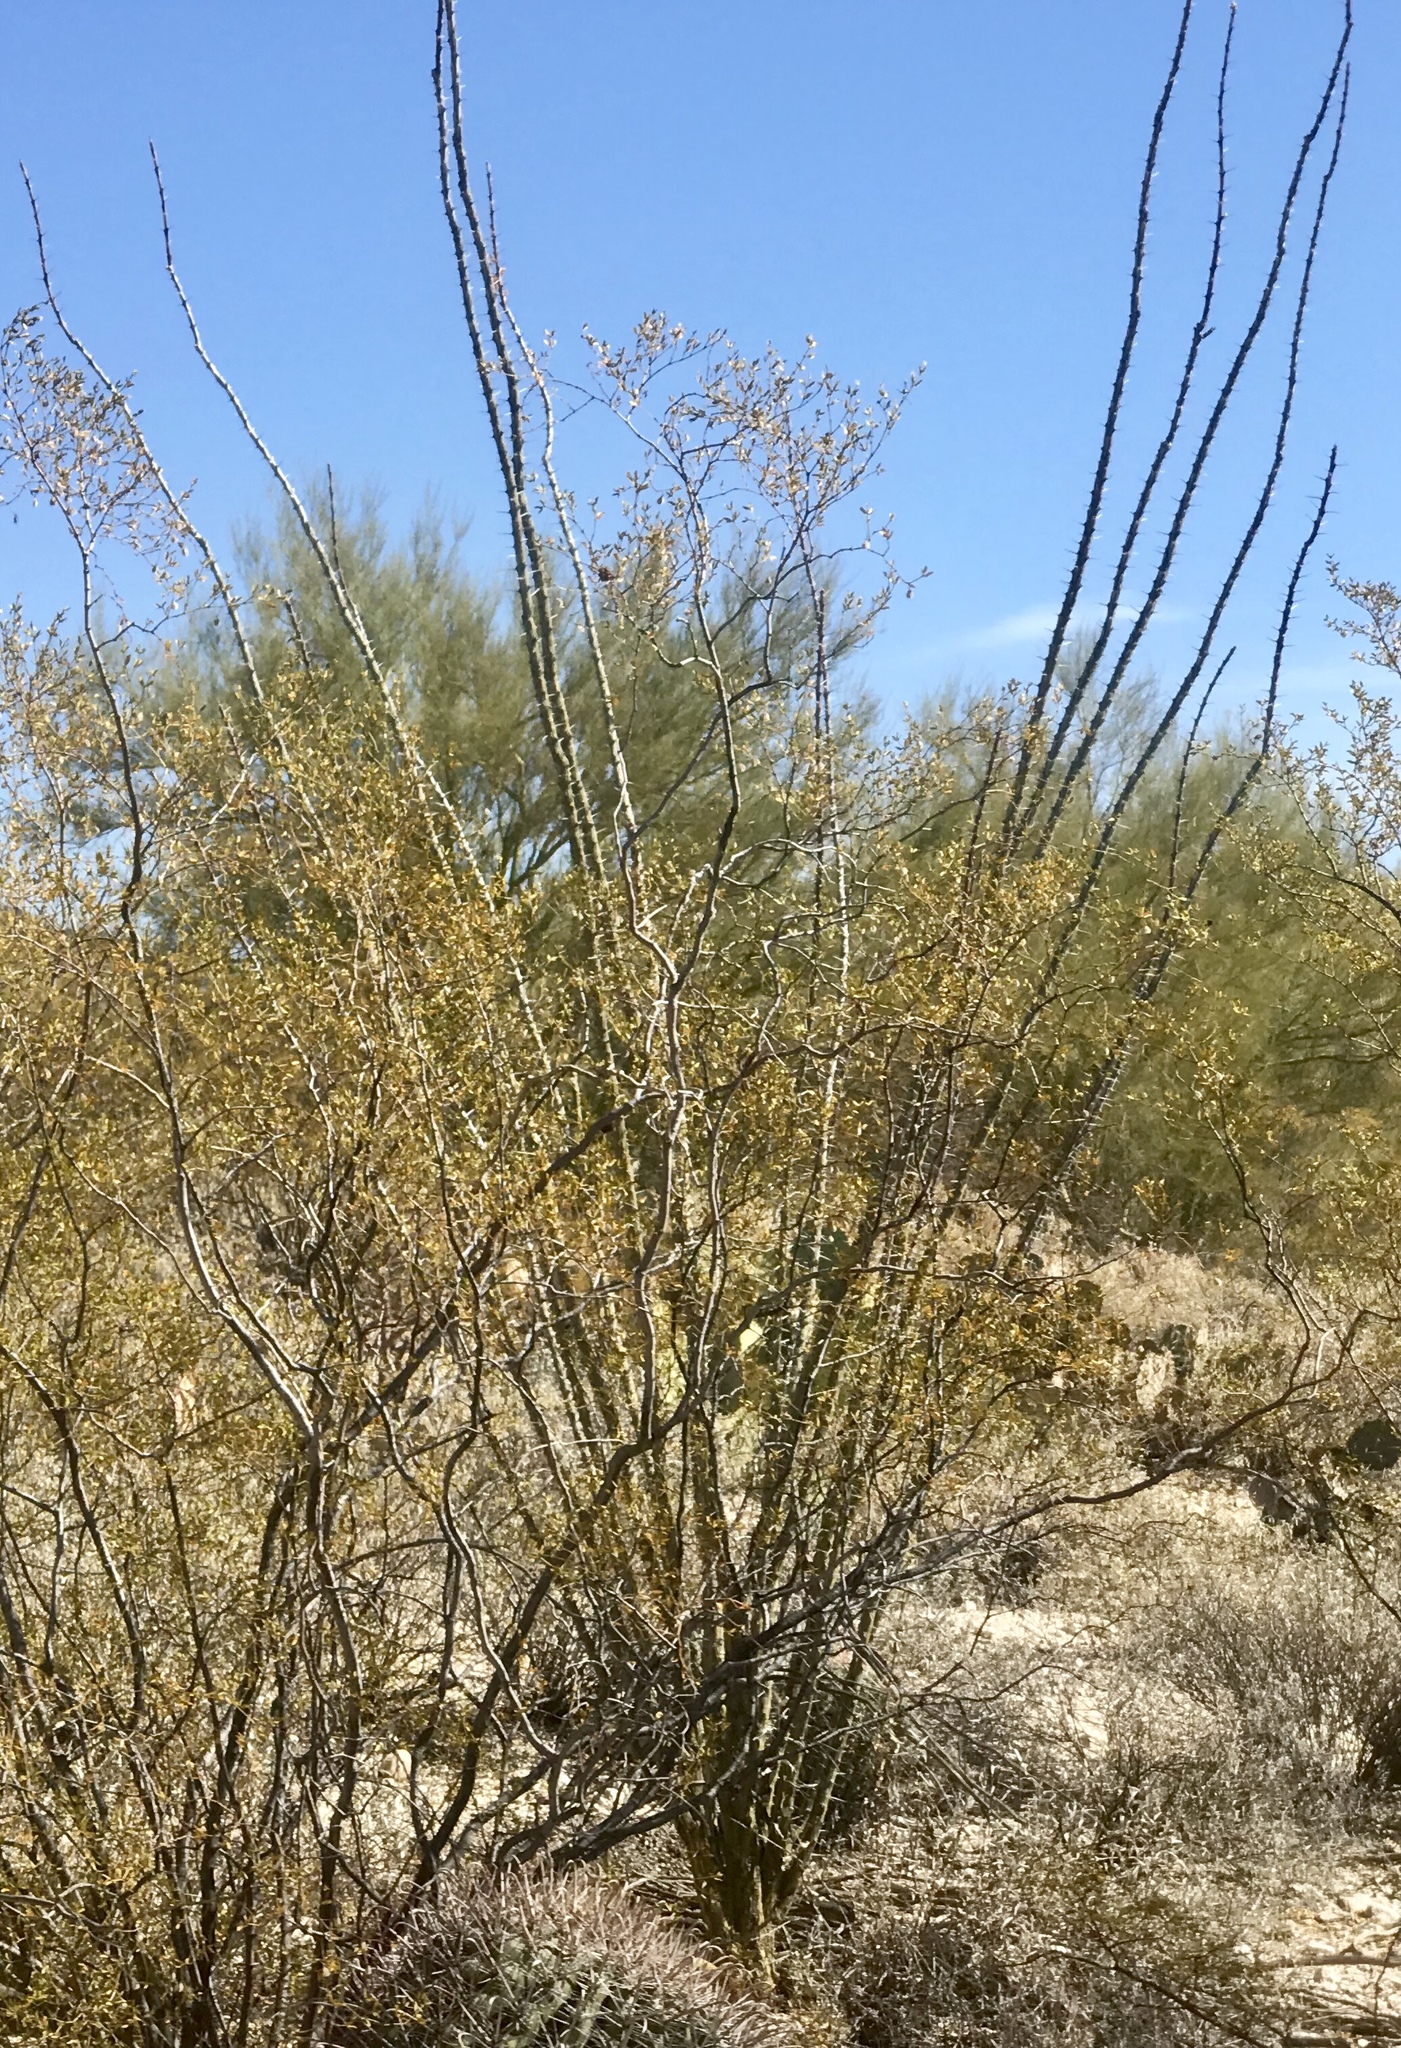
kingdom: Plantae
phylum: Tracheophyta
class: Magnoliopsida
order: Ericales
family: Fouquieriaceae
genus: Fouquieria
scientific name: Fouquieria splendens
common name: Vine-cactus
